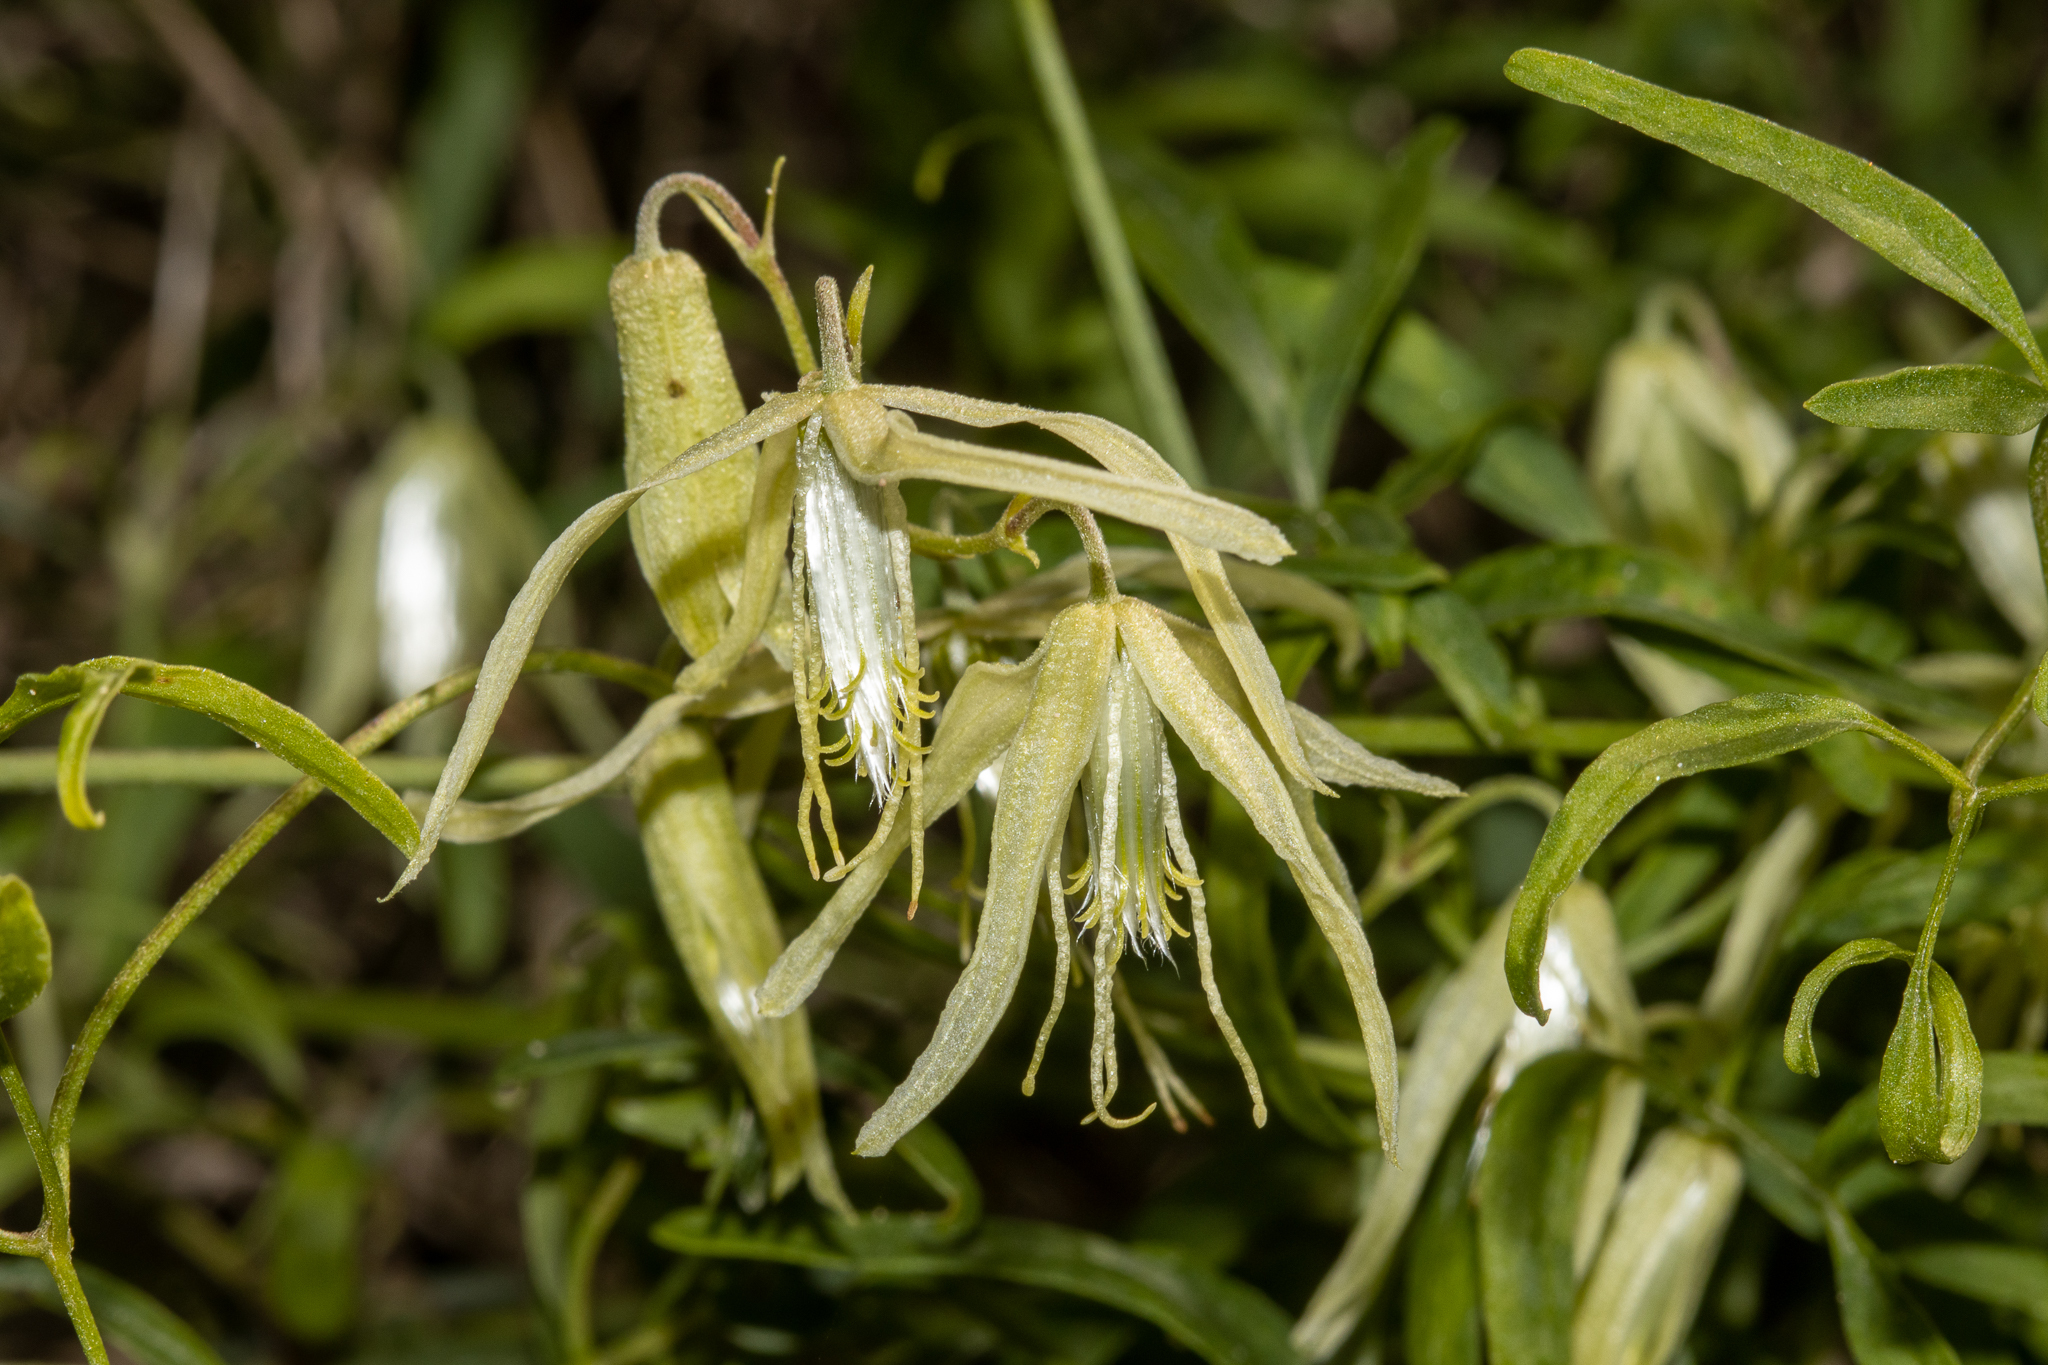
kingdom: Plantae
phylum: Tracheophyta
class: Magnoliopsida
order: Ranunculales
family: Ranunculaceae
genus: Clematis
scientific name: Clematis microphylla
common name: Headachevine
